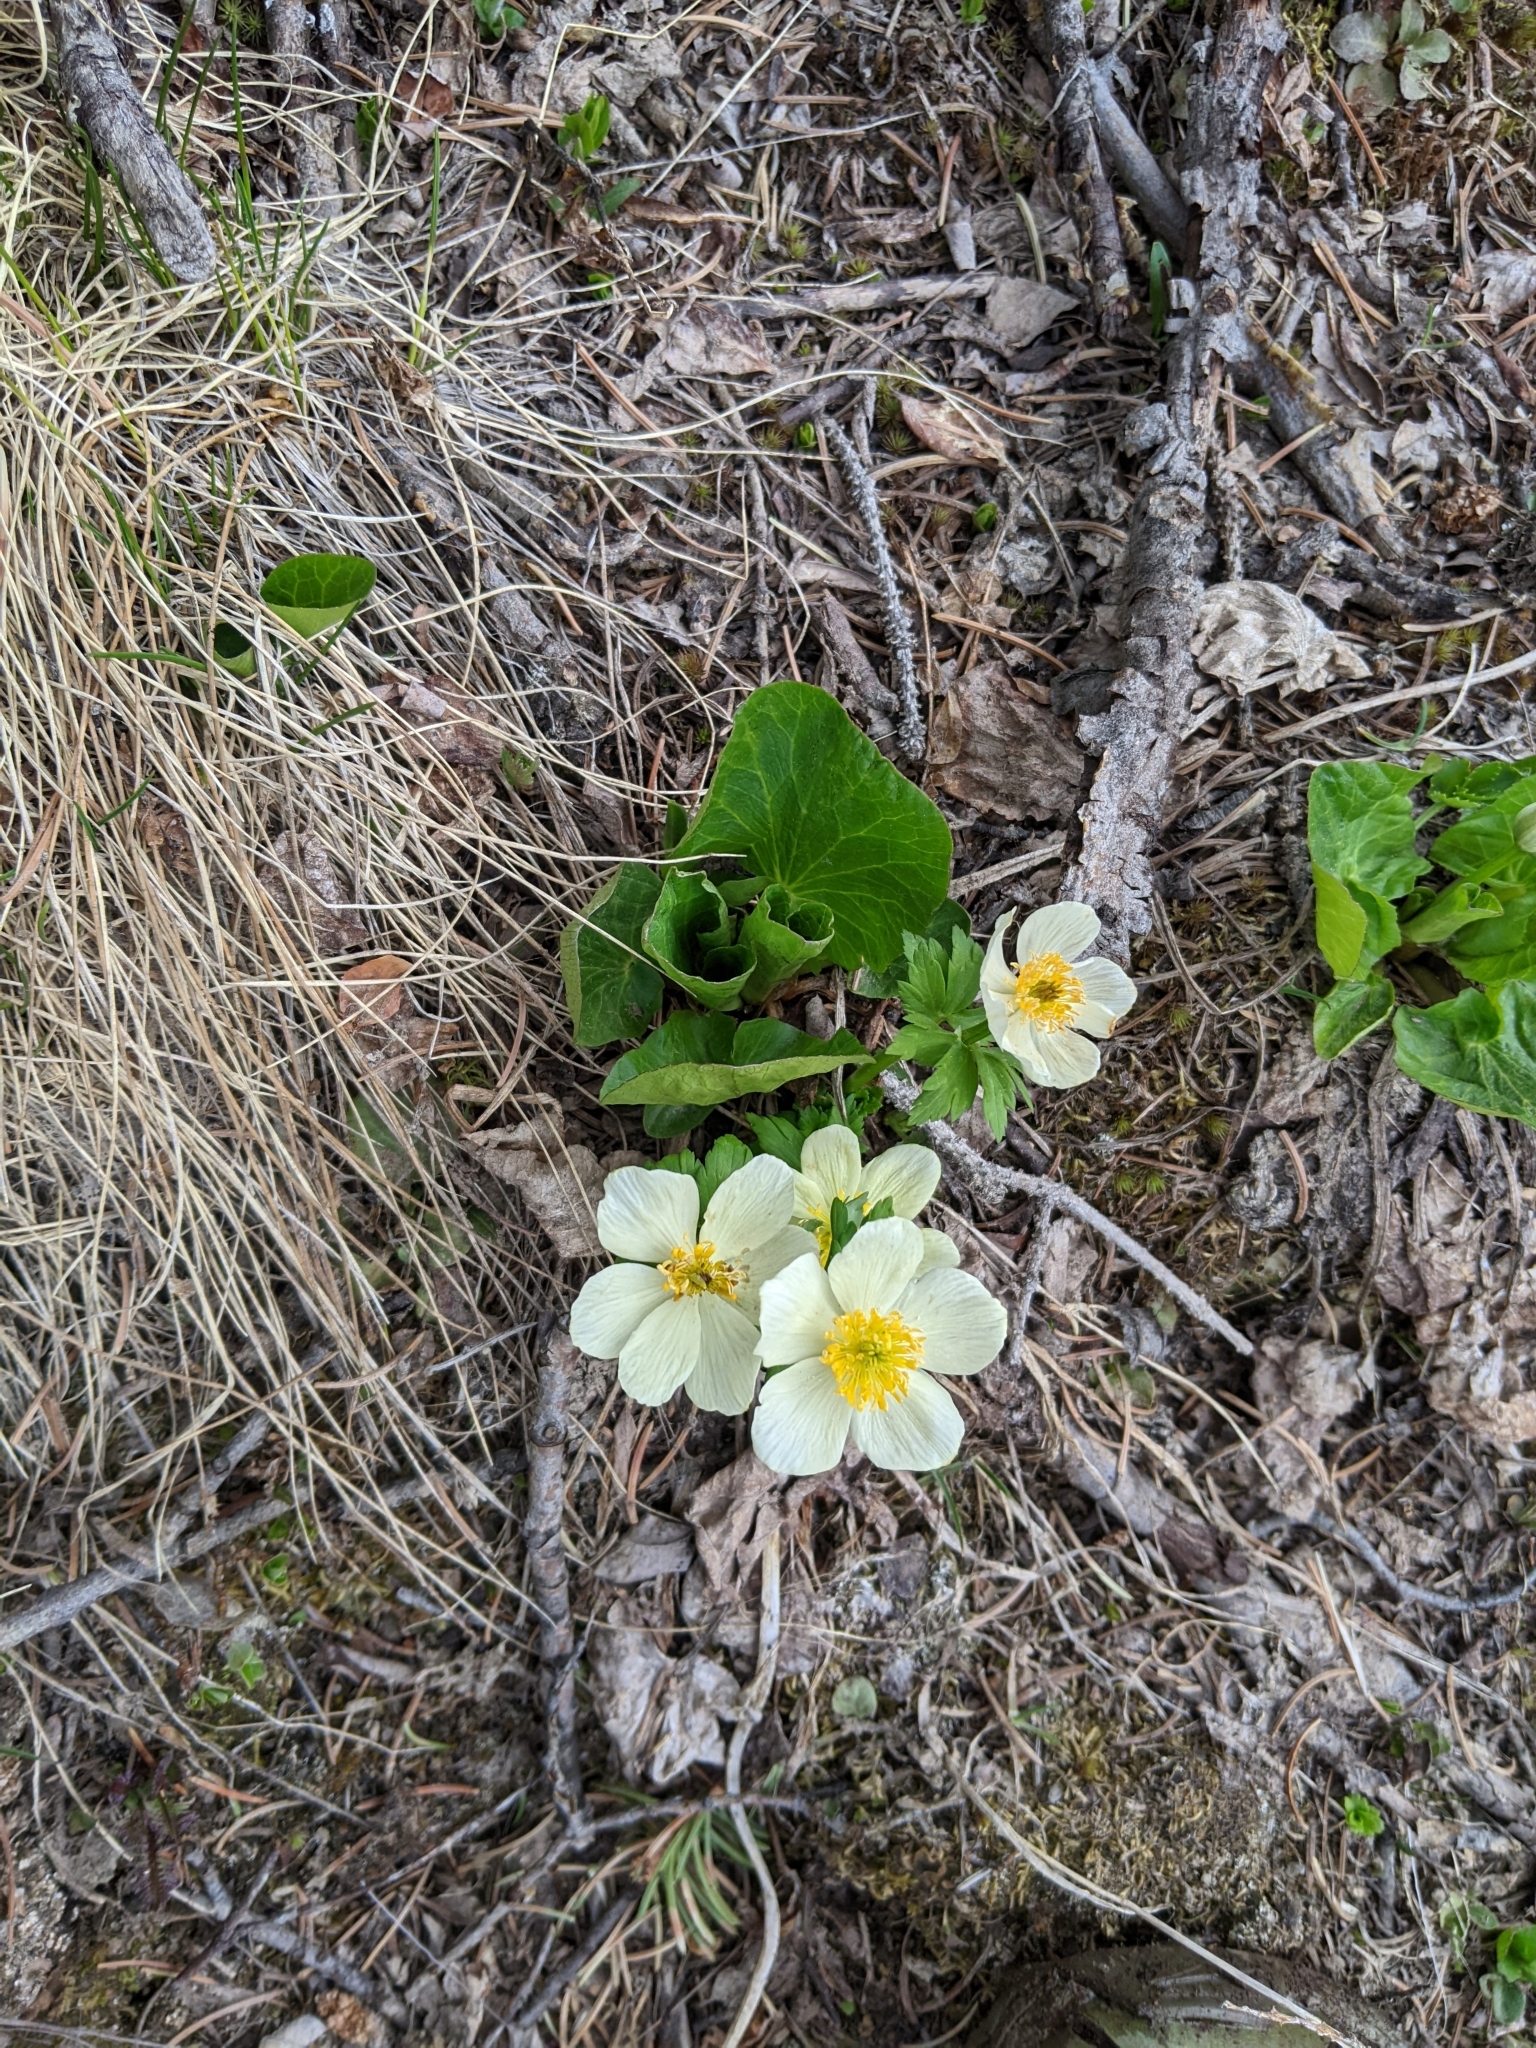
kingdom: Plantae
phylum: Tracheophyta
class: Magnoliopsida
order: Ranunculales
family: Ranunculaceae
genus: Trollius
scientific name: Trollius laxus
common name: American globeflower
